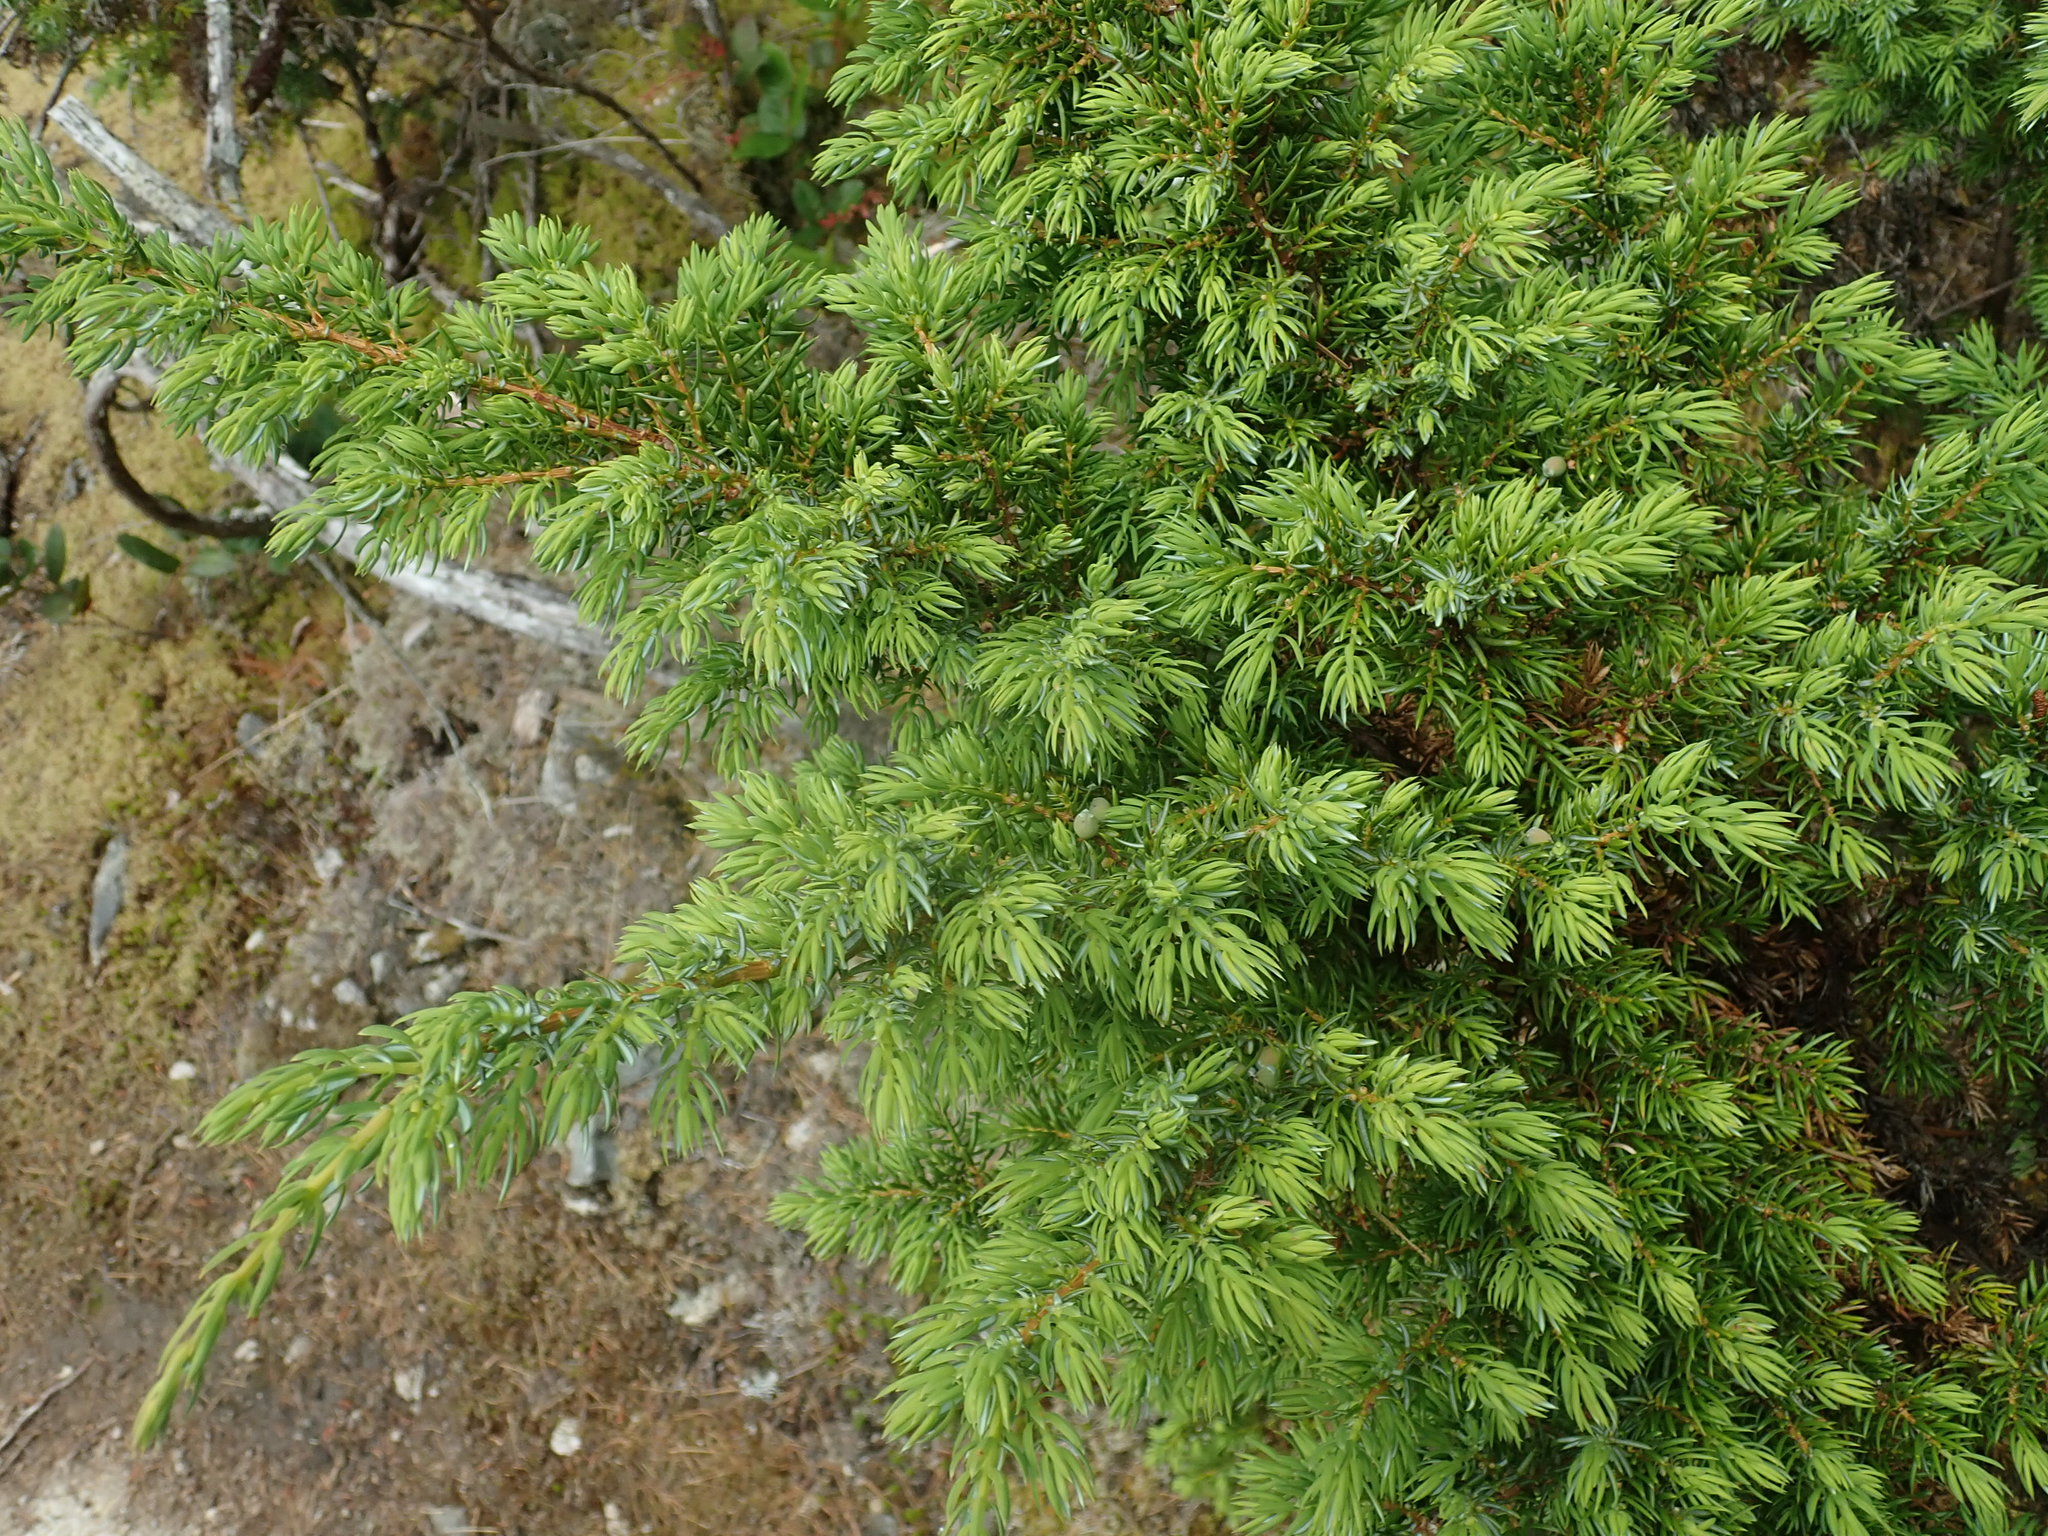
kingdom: Plantae
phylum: Tracheophyta
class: Pinopsida
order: Pinales
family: Cupressaceae
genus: Juniperus
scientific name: Juniperus communis
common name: Common juniper
